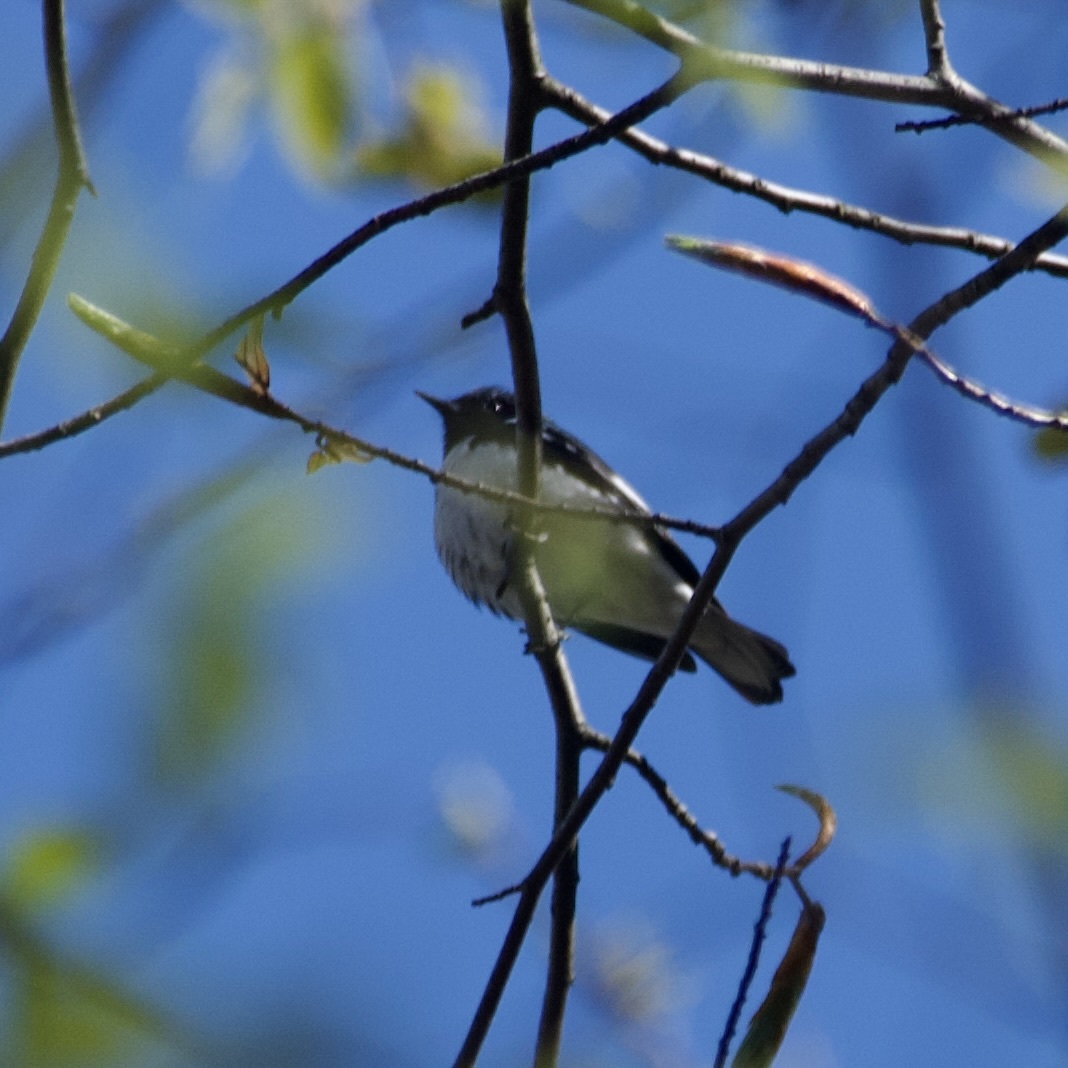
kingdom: Animalia
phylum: Chordata
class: Aves
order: Passeriformes
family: Parulidae
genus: Setophaga
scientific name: Setophaga caerulescens
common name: Black-throated blue warbler
